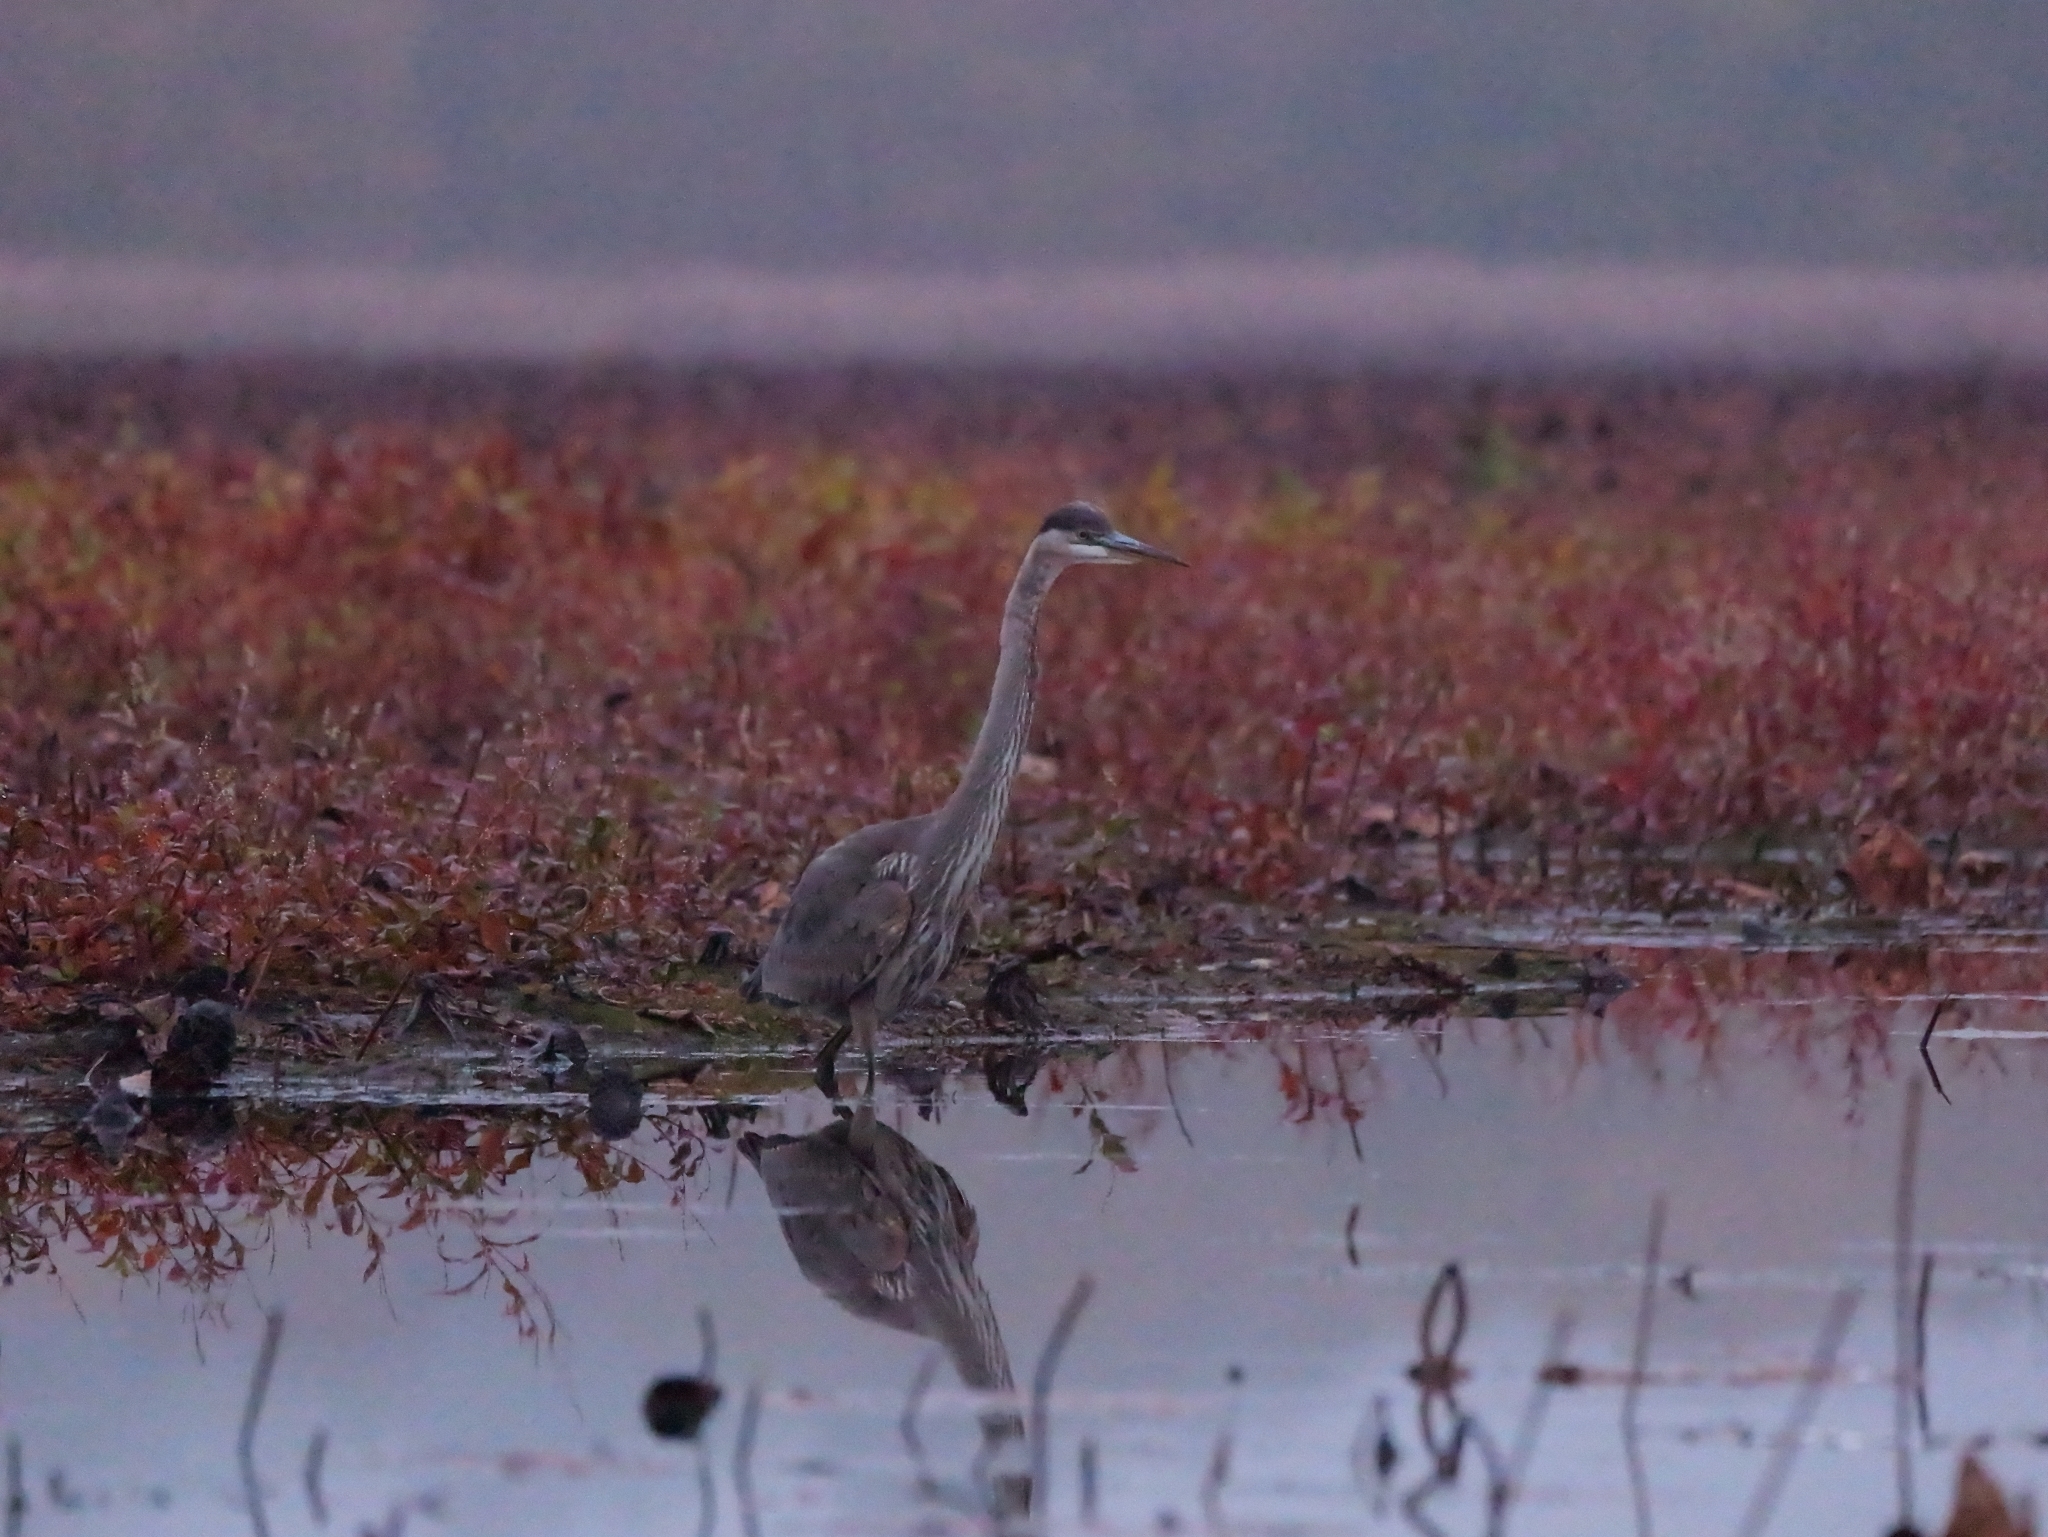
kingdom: Animalia
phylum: Chordata
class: Aves
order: Pelecaniformes
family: Ardeidae
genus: Ardea
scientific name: Ardea herodias
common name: Great blue heron
